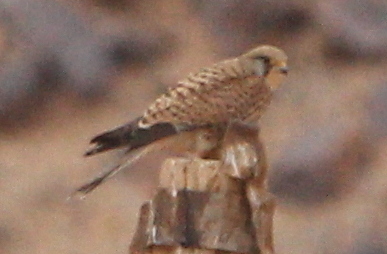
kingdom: Animalia
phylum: Chordata
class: Aves
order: Falconiformes
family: Falconidae
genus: Falco
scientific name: Falco tinnunculus
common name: Common kestrel
